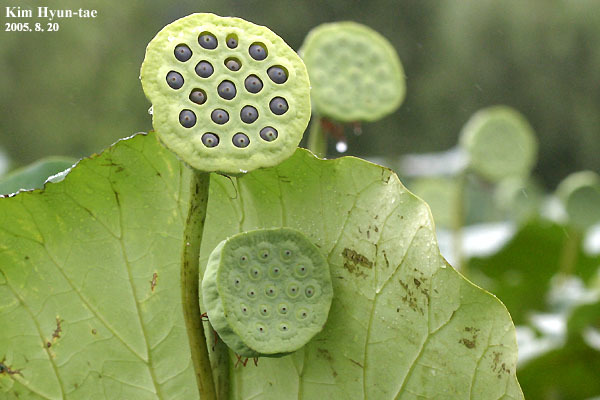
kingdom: Plantae
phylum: Tracheophyta
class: Magnoliopsida
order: Proteales
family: Nelumbonaceae
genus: Nelumbo
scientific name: Nelumbo nucifera
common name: Sacred lotus
